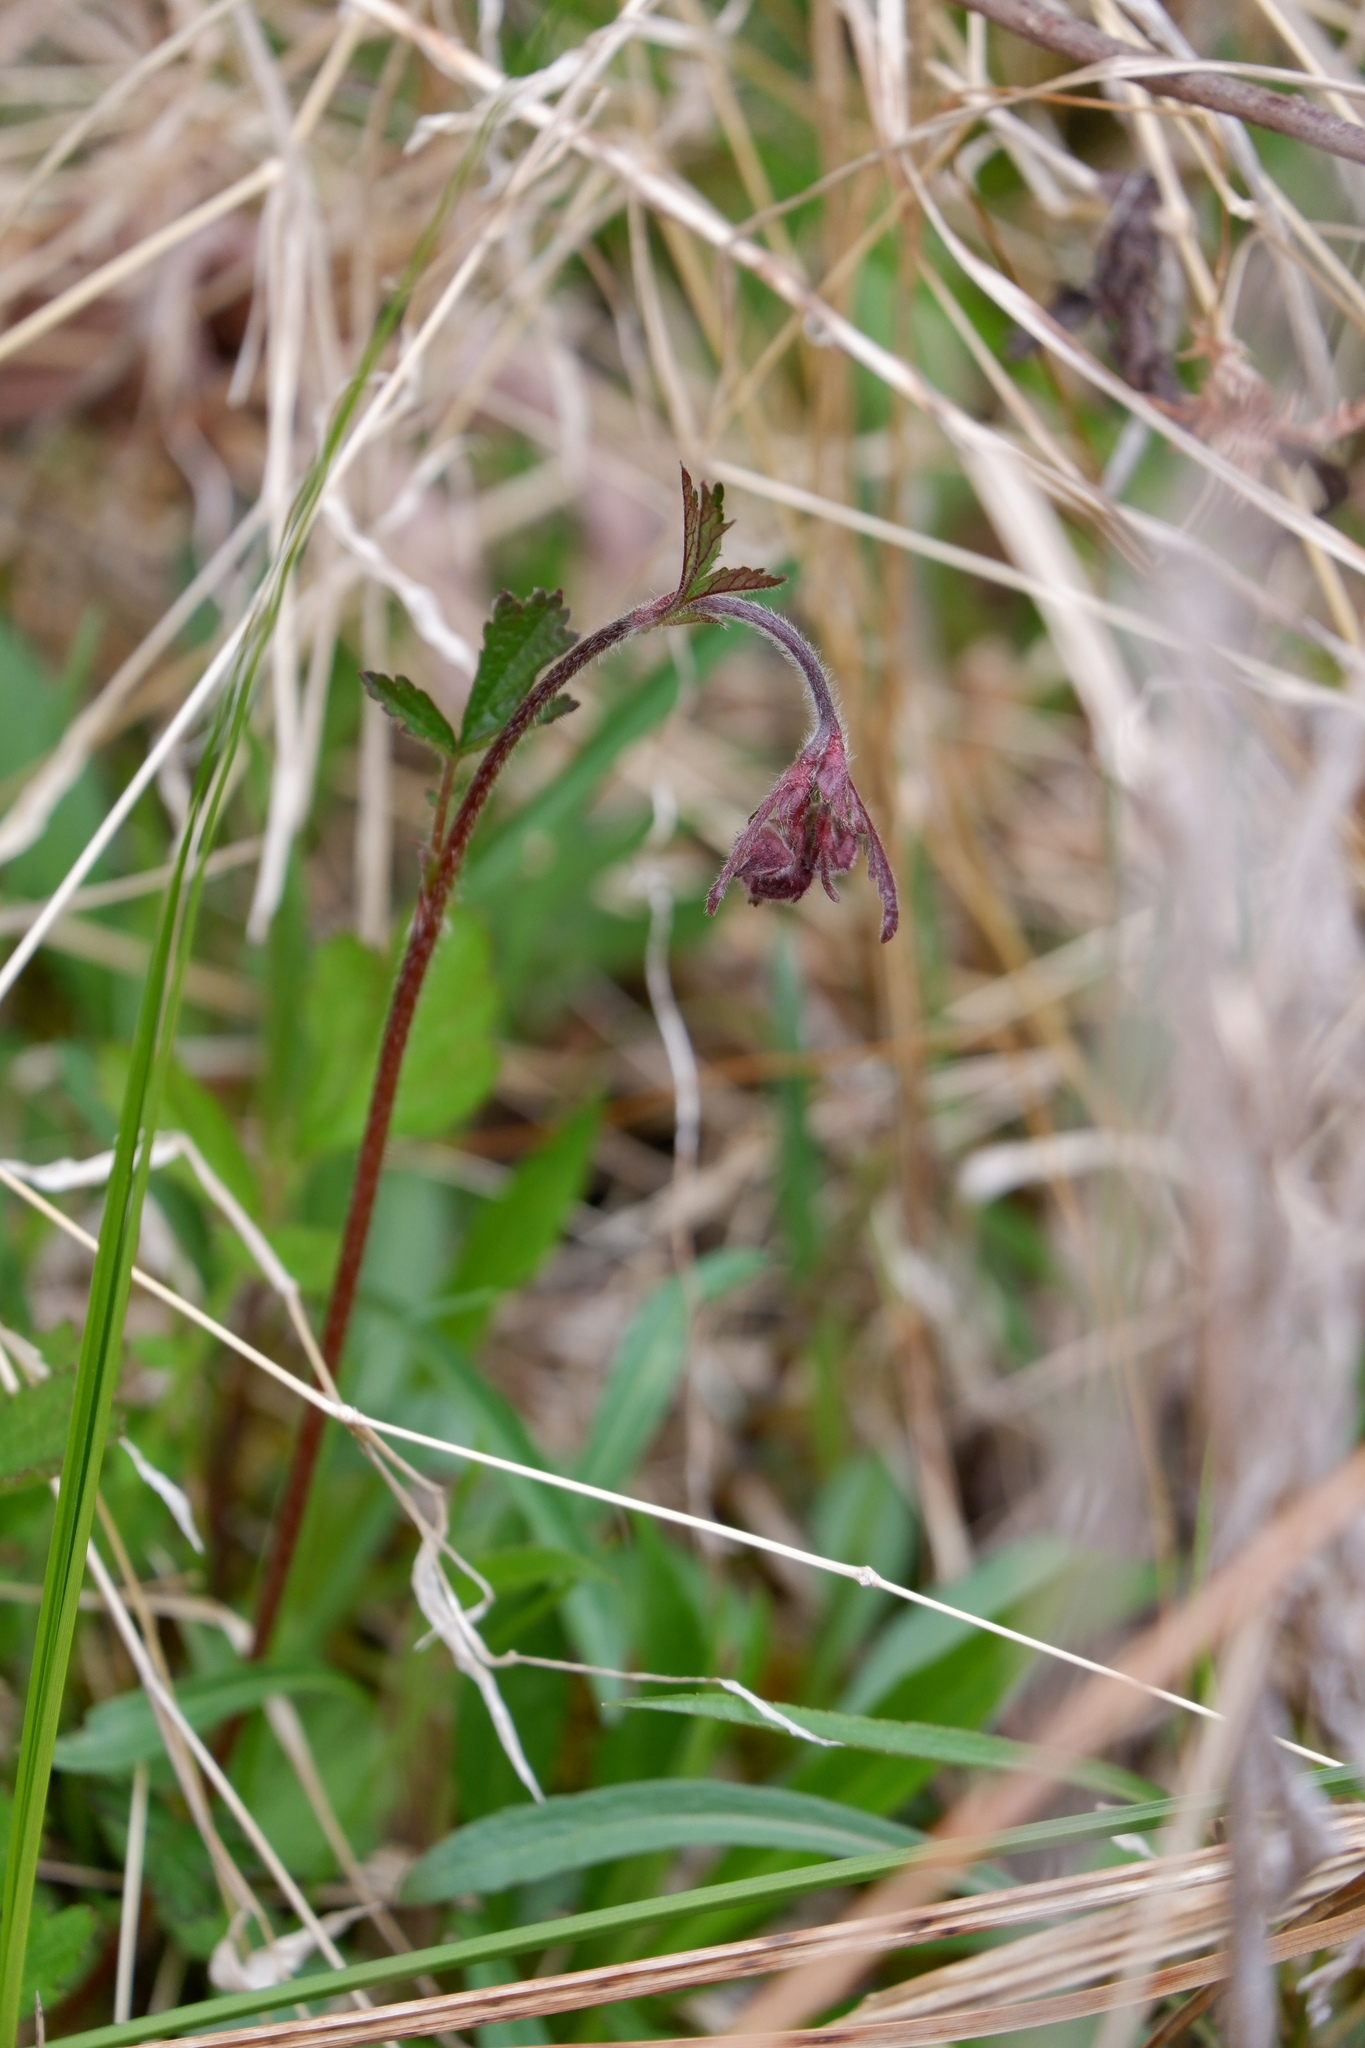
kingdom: Plantae
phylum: Tracheophyta
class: Magnoliopsida
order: Rosales
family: Rosaceae
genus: Geum
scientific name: Geum rivale
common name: Water avens
